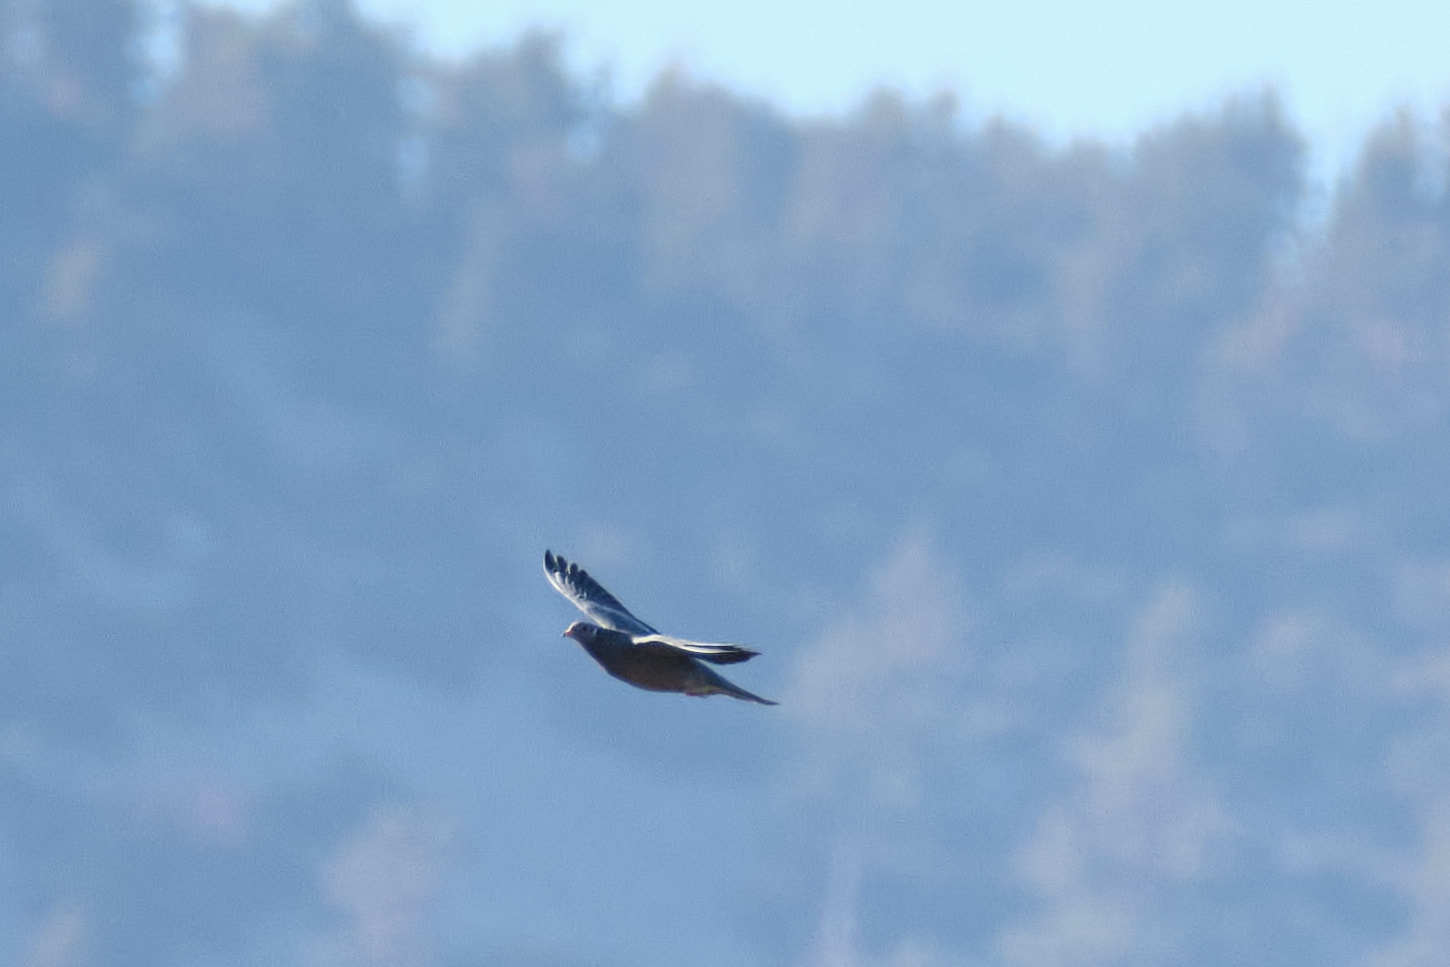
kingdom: Animalia
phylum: Chordata
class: Aves
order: Columbiformes
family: Columbidae
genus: Patagioenas
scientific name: Patagioenas fasciata
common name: Band-tailed pigeon
